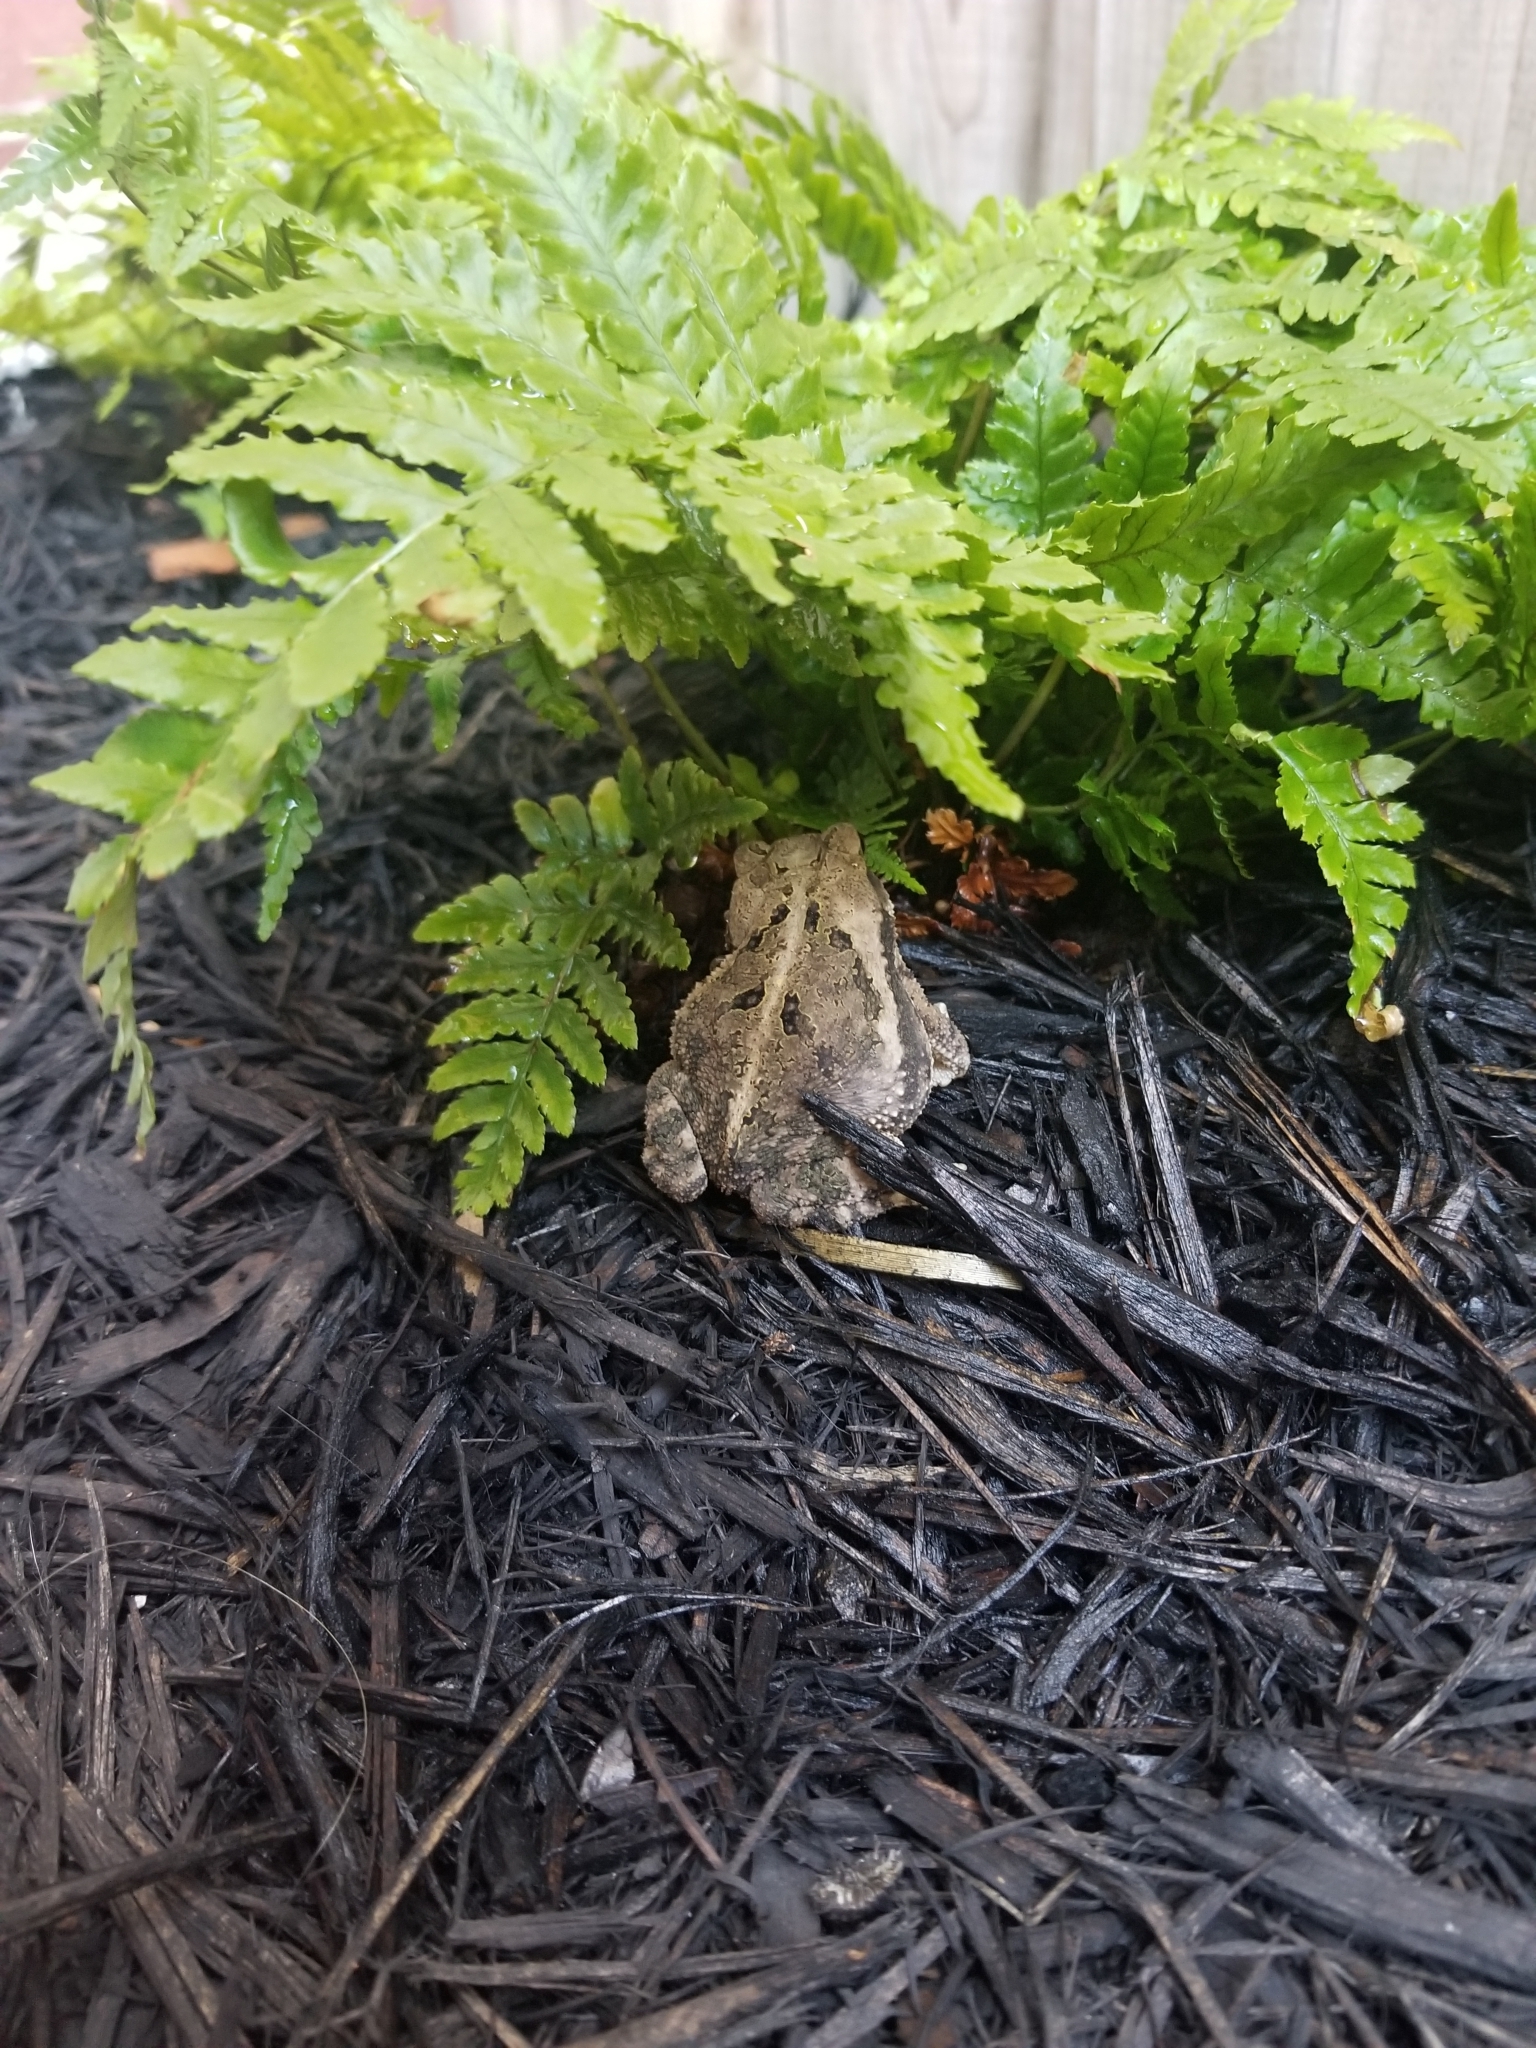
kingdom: Animalia
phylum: Chordata
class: Amphibia
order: Anura
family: Bufonidae
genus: Incilius
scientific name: Incilius nebulifer
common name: Gulf coast toad
